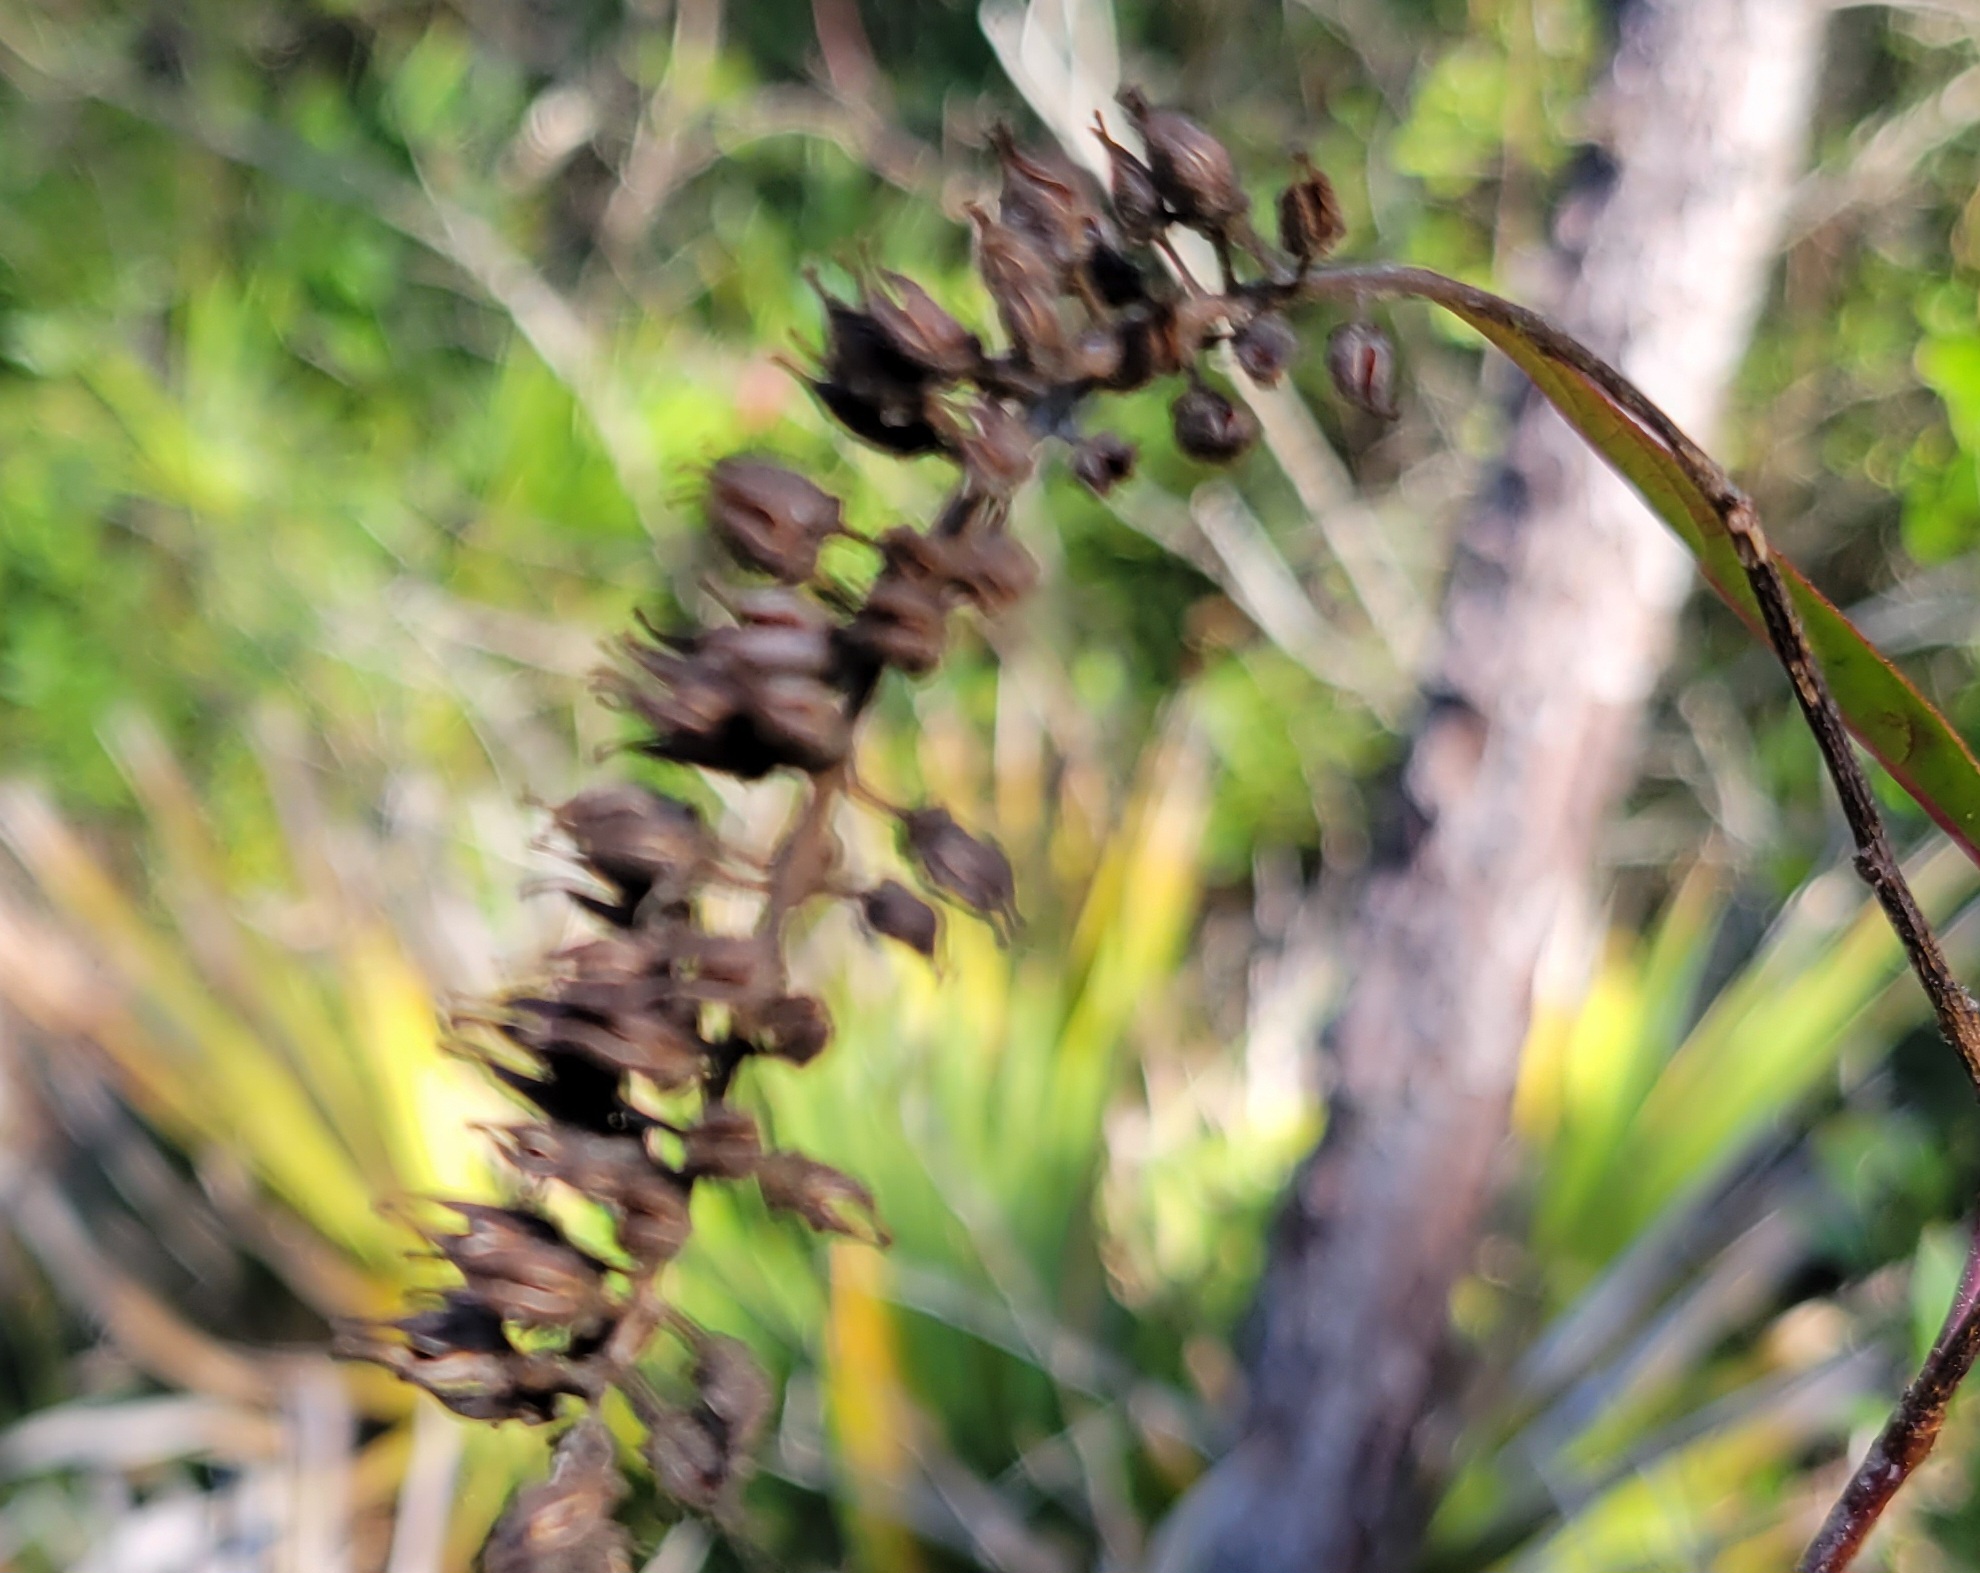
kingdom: Plantae
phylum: Tracheophyta
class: Magnoliopsida
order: Saxifragales
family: Iteaceae
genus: Itea
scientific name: Itea virginica
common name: Sweetspire
